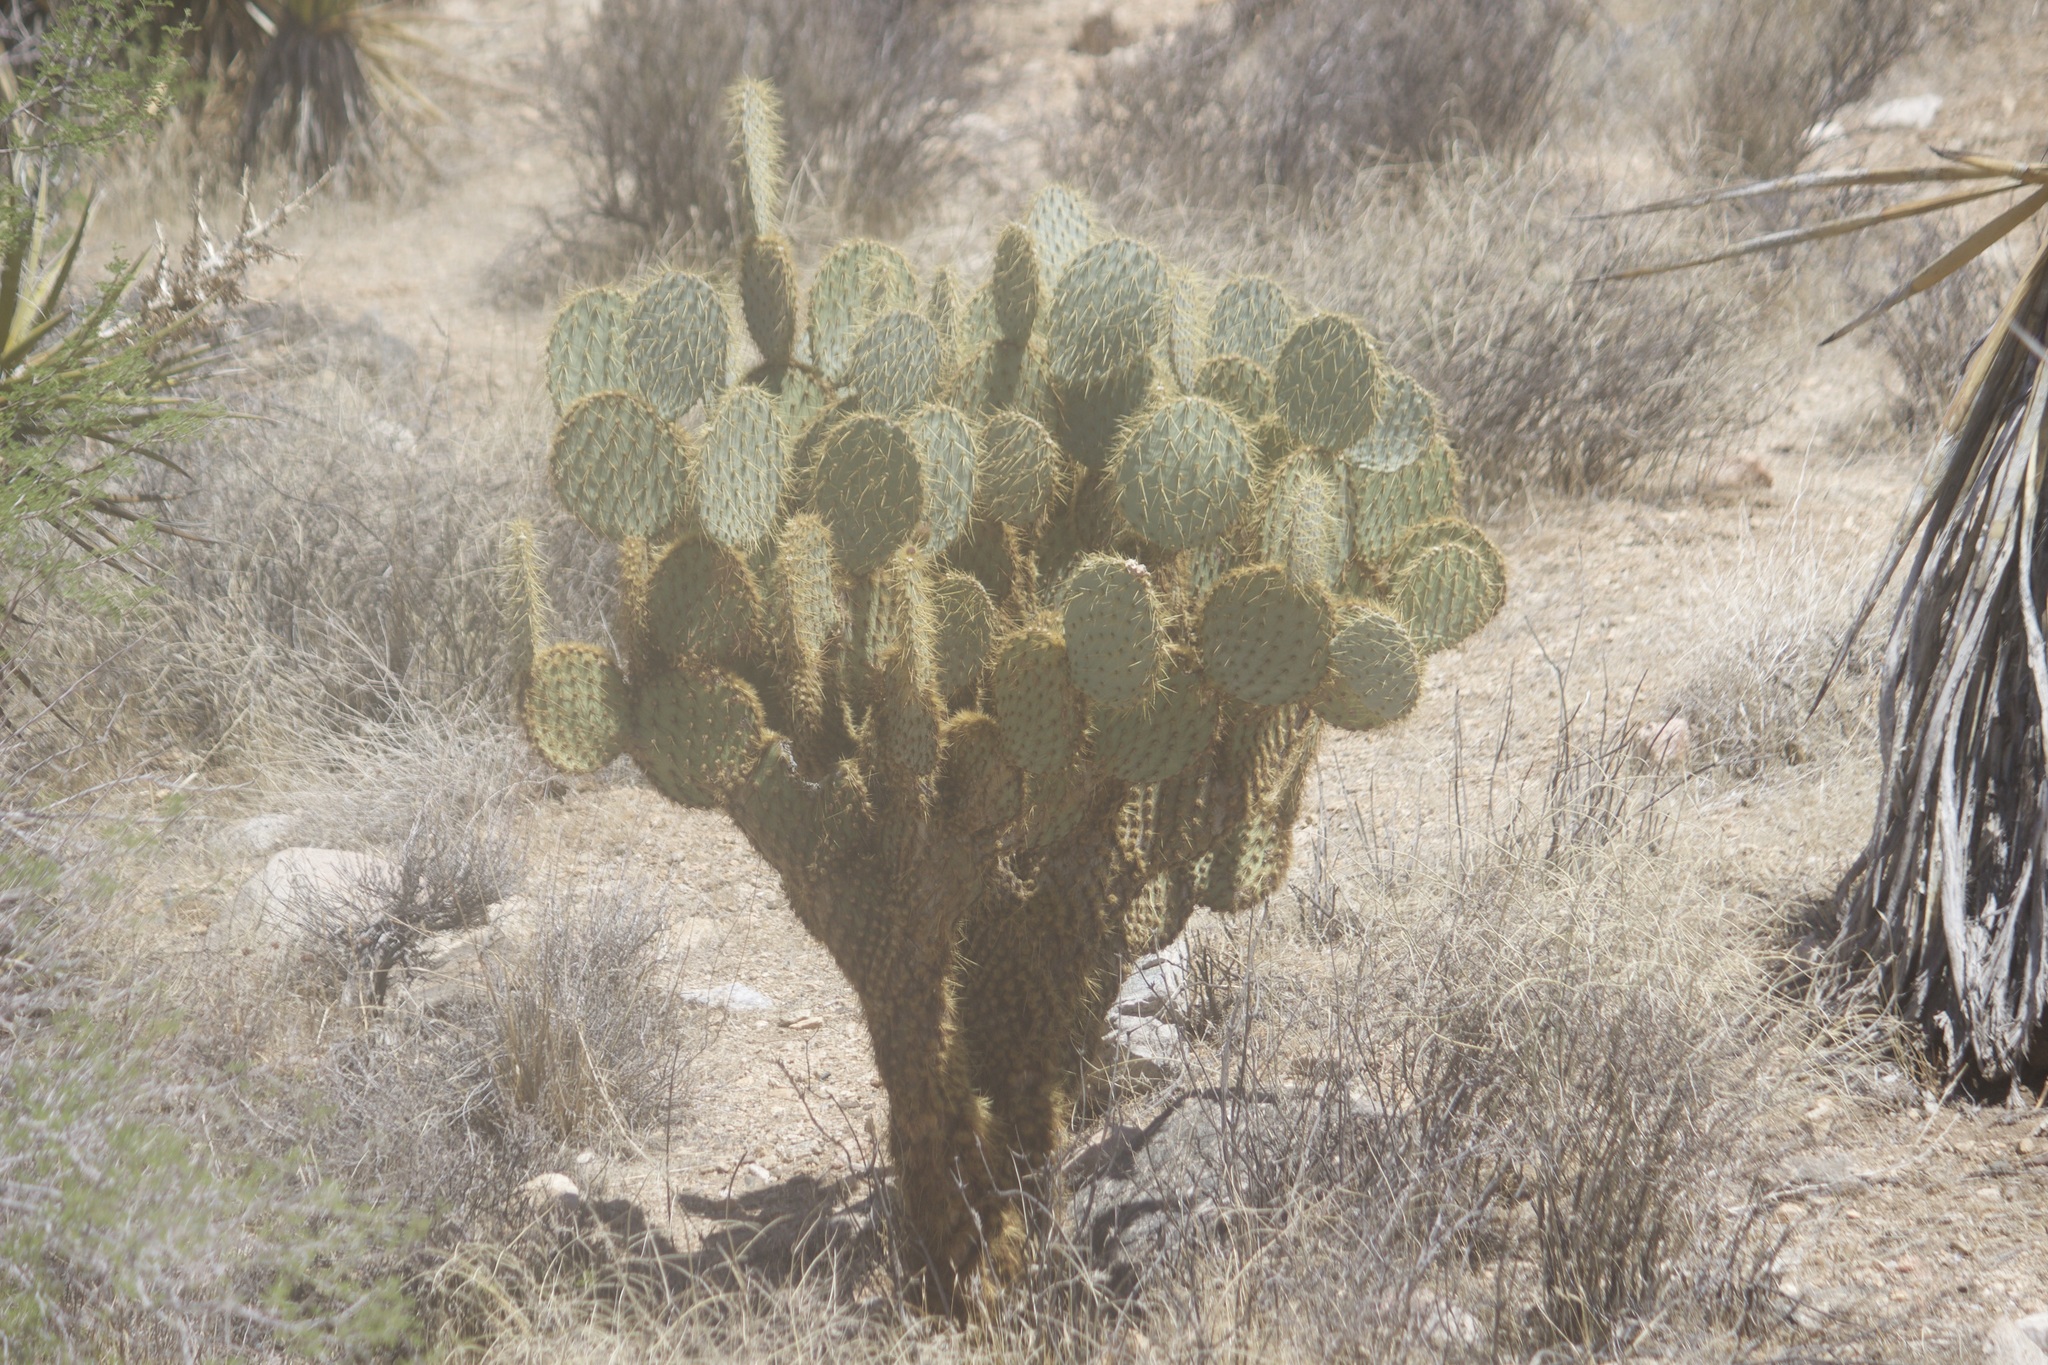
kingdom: Plantae
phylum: Tracheophyta
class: Magnoliopsida
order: Caryophyllales
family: Cactaceae
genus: Opuntia
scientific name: Opuntia chlorotica
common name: Dollar-joint prickly-pear
